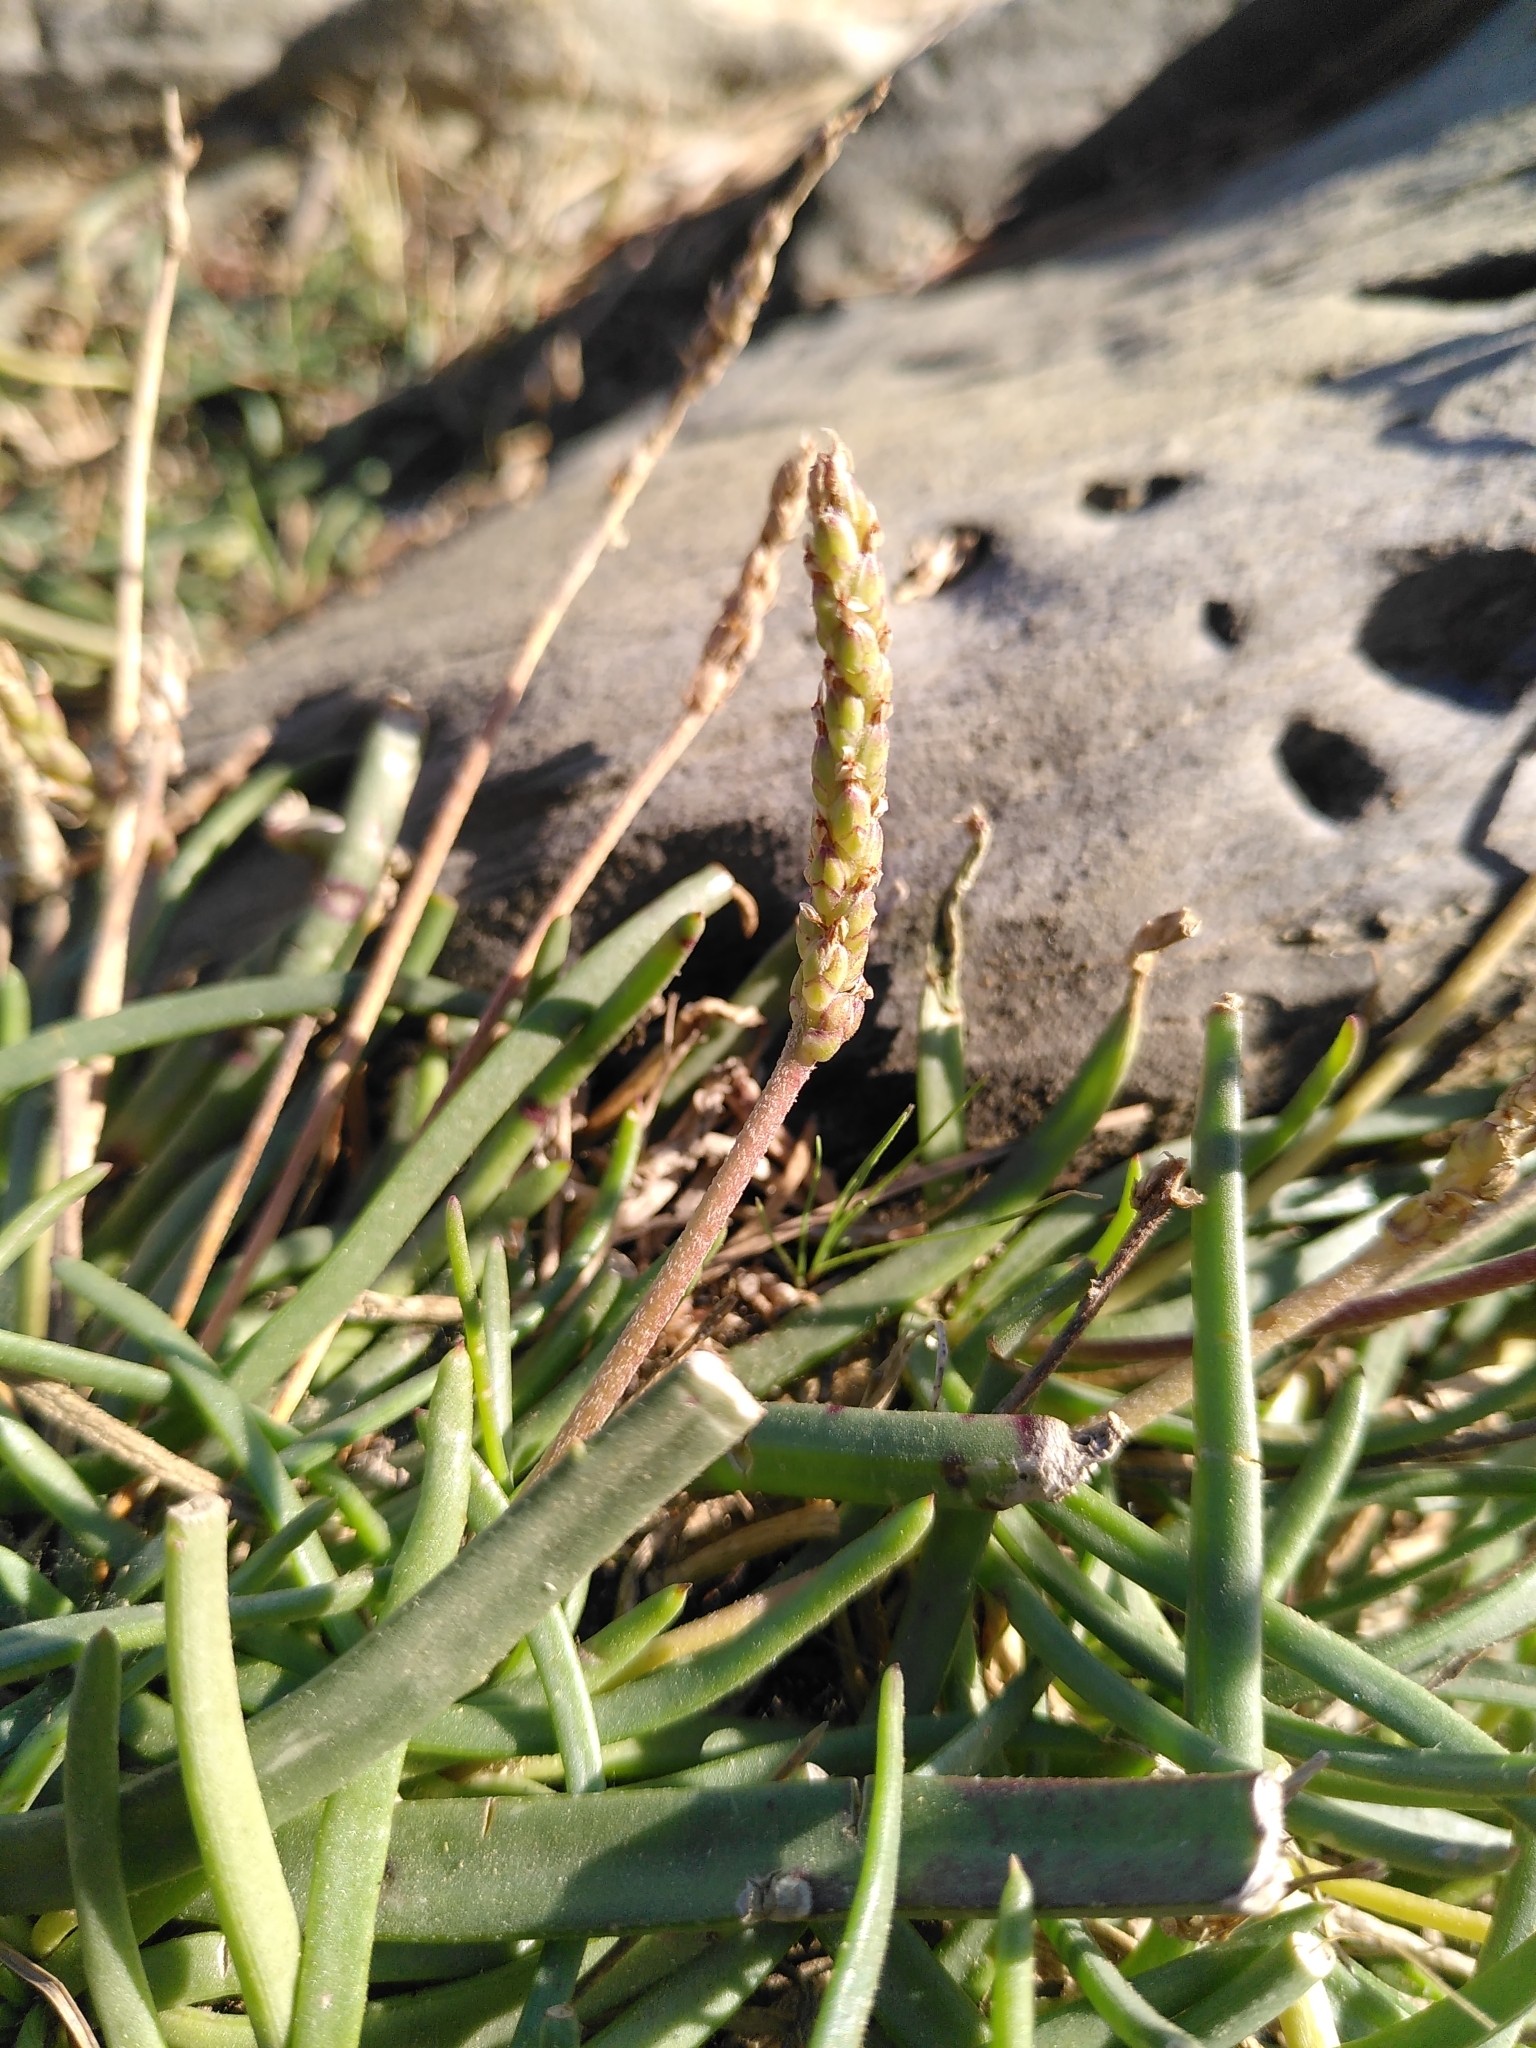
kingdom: Plantae
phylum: Tracheophyta
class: Magnoliopsida
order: Lamiales
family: Plantaginaceae
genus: Plantago
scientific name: Plantago crassifolia
